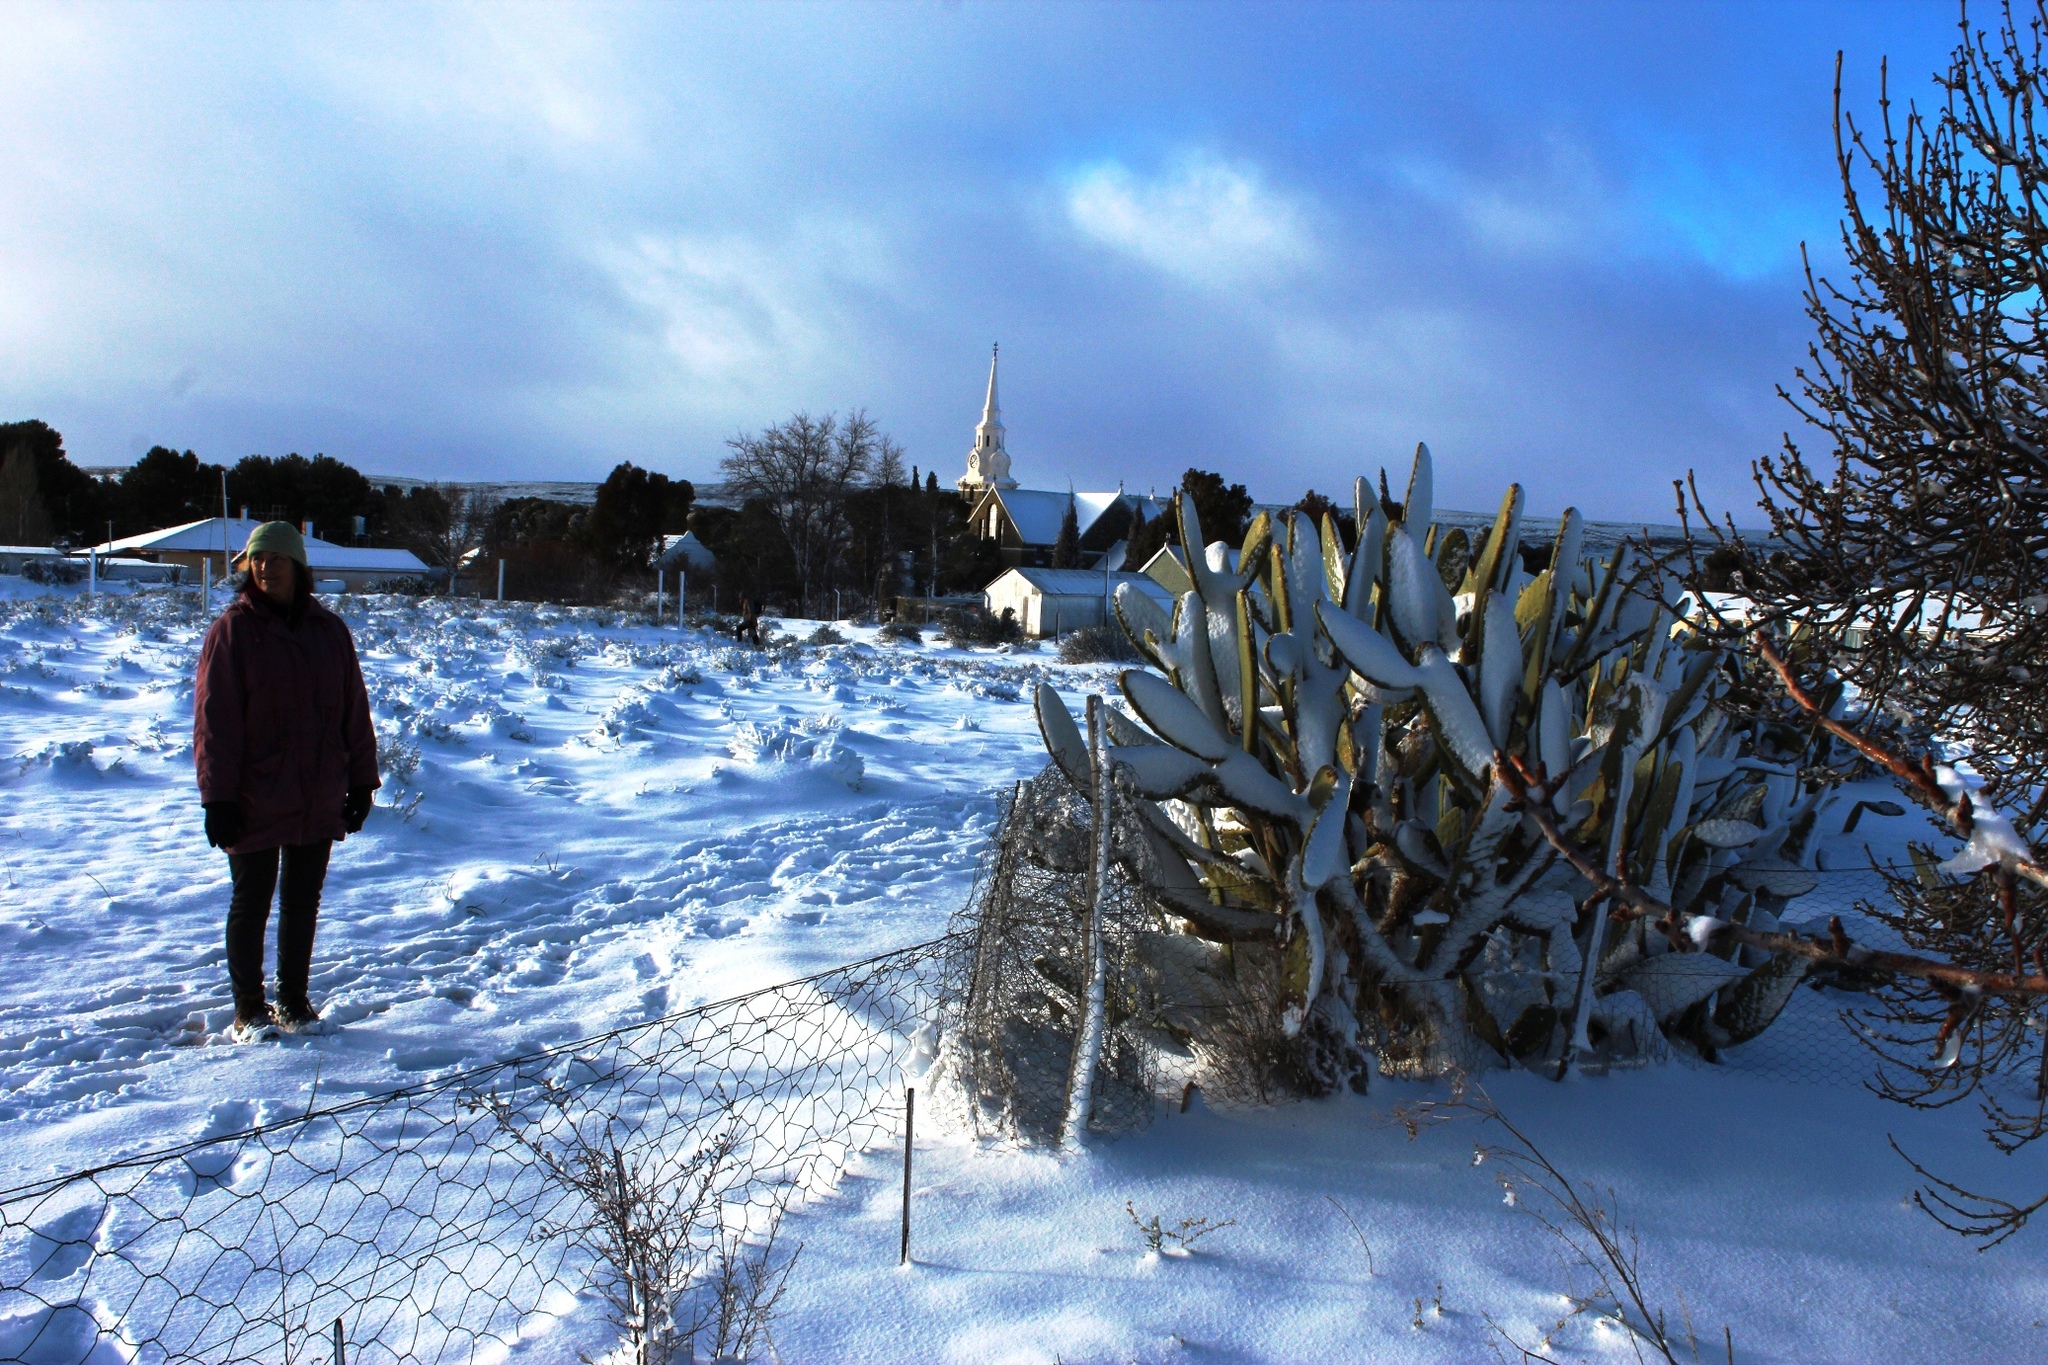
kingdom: Plantae
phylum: Tracheophyta
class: Magnoliopsida
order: Caryophyllales
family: Cactaceae
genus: Opuntia
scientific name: Opuntia ficus-indica
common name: Barbary fig
